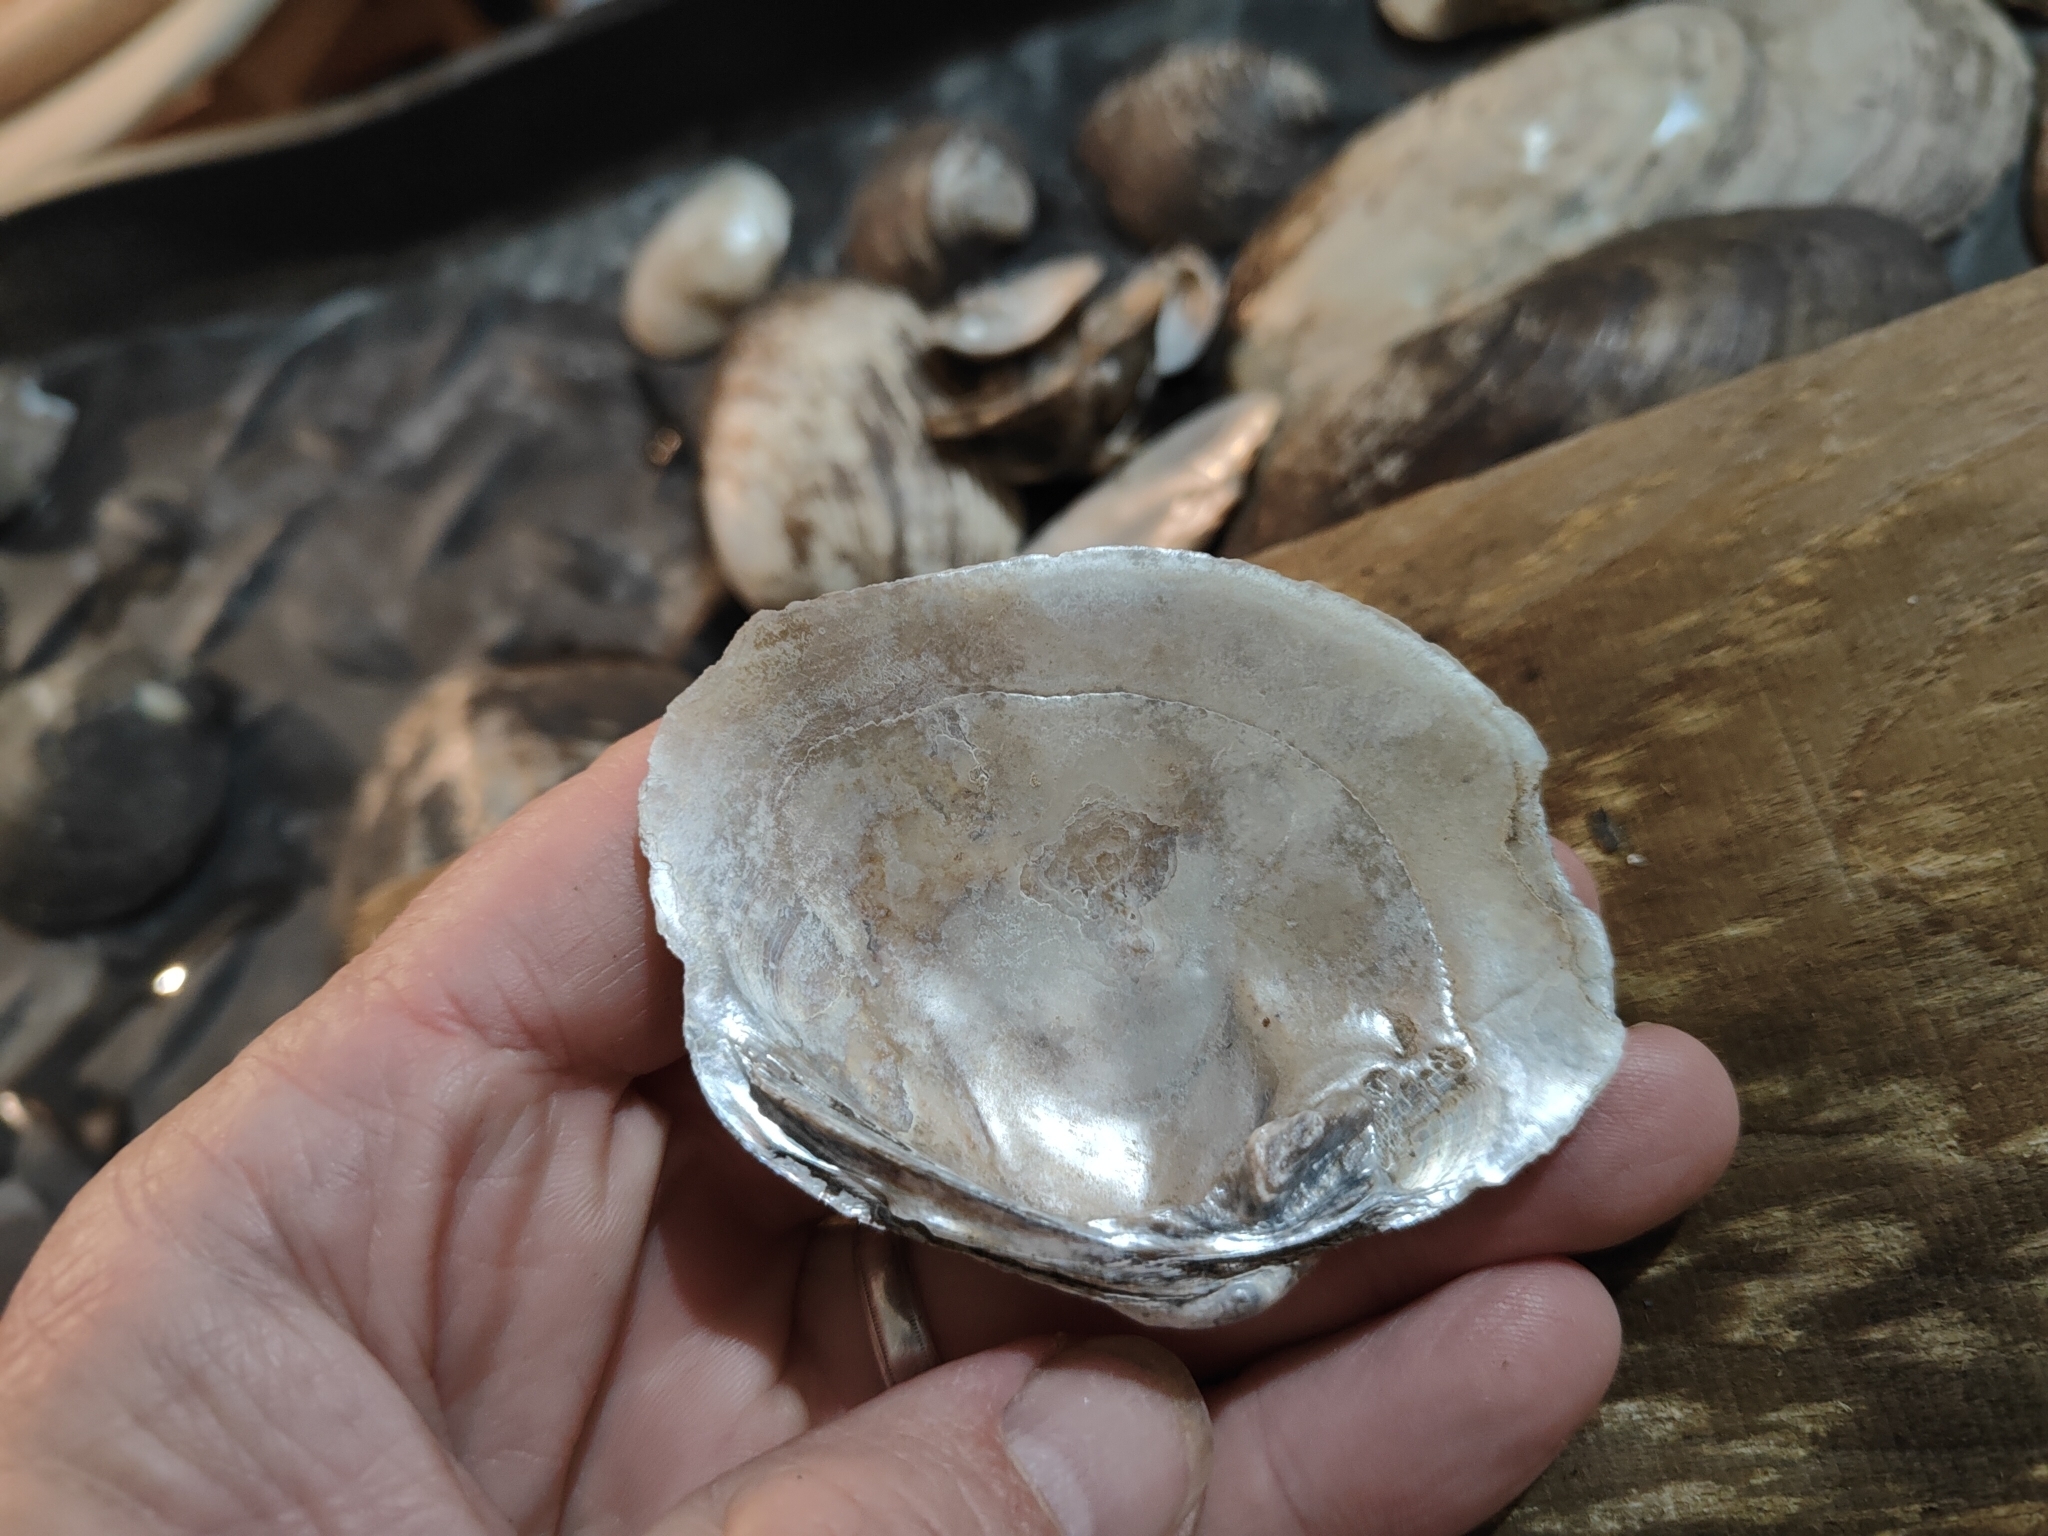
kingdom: Animalia
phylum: Mollusca
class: Bivalvia
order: Unionida
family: Unionidae
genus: Quadrula
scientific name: Quadrula quadrula
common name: Mapleleaf
